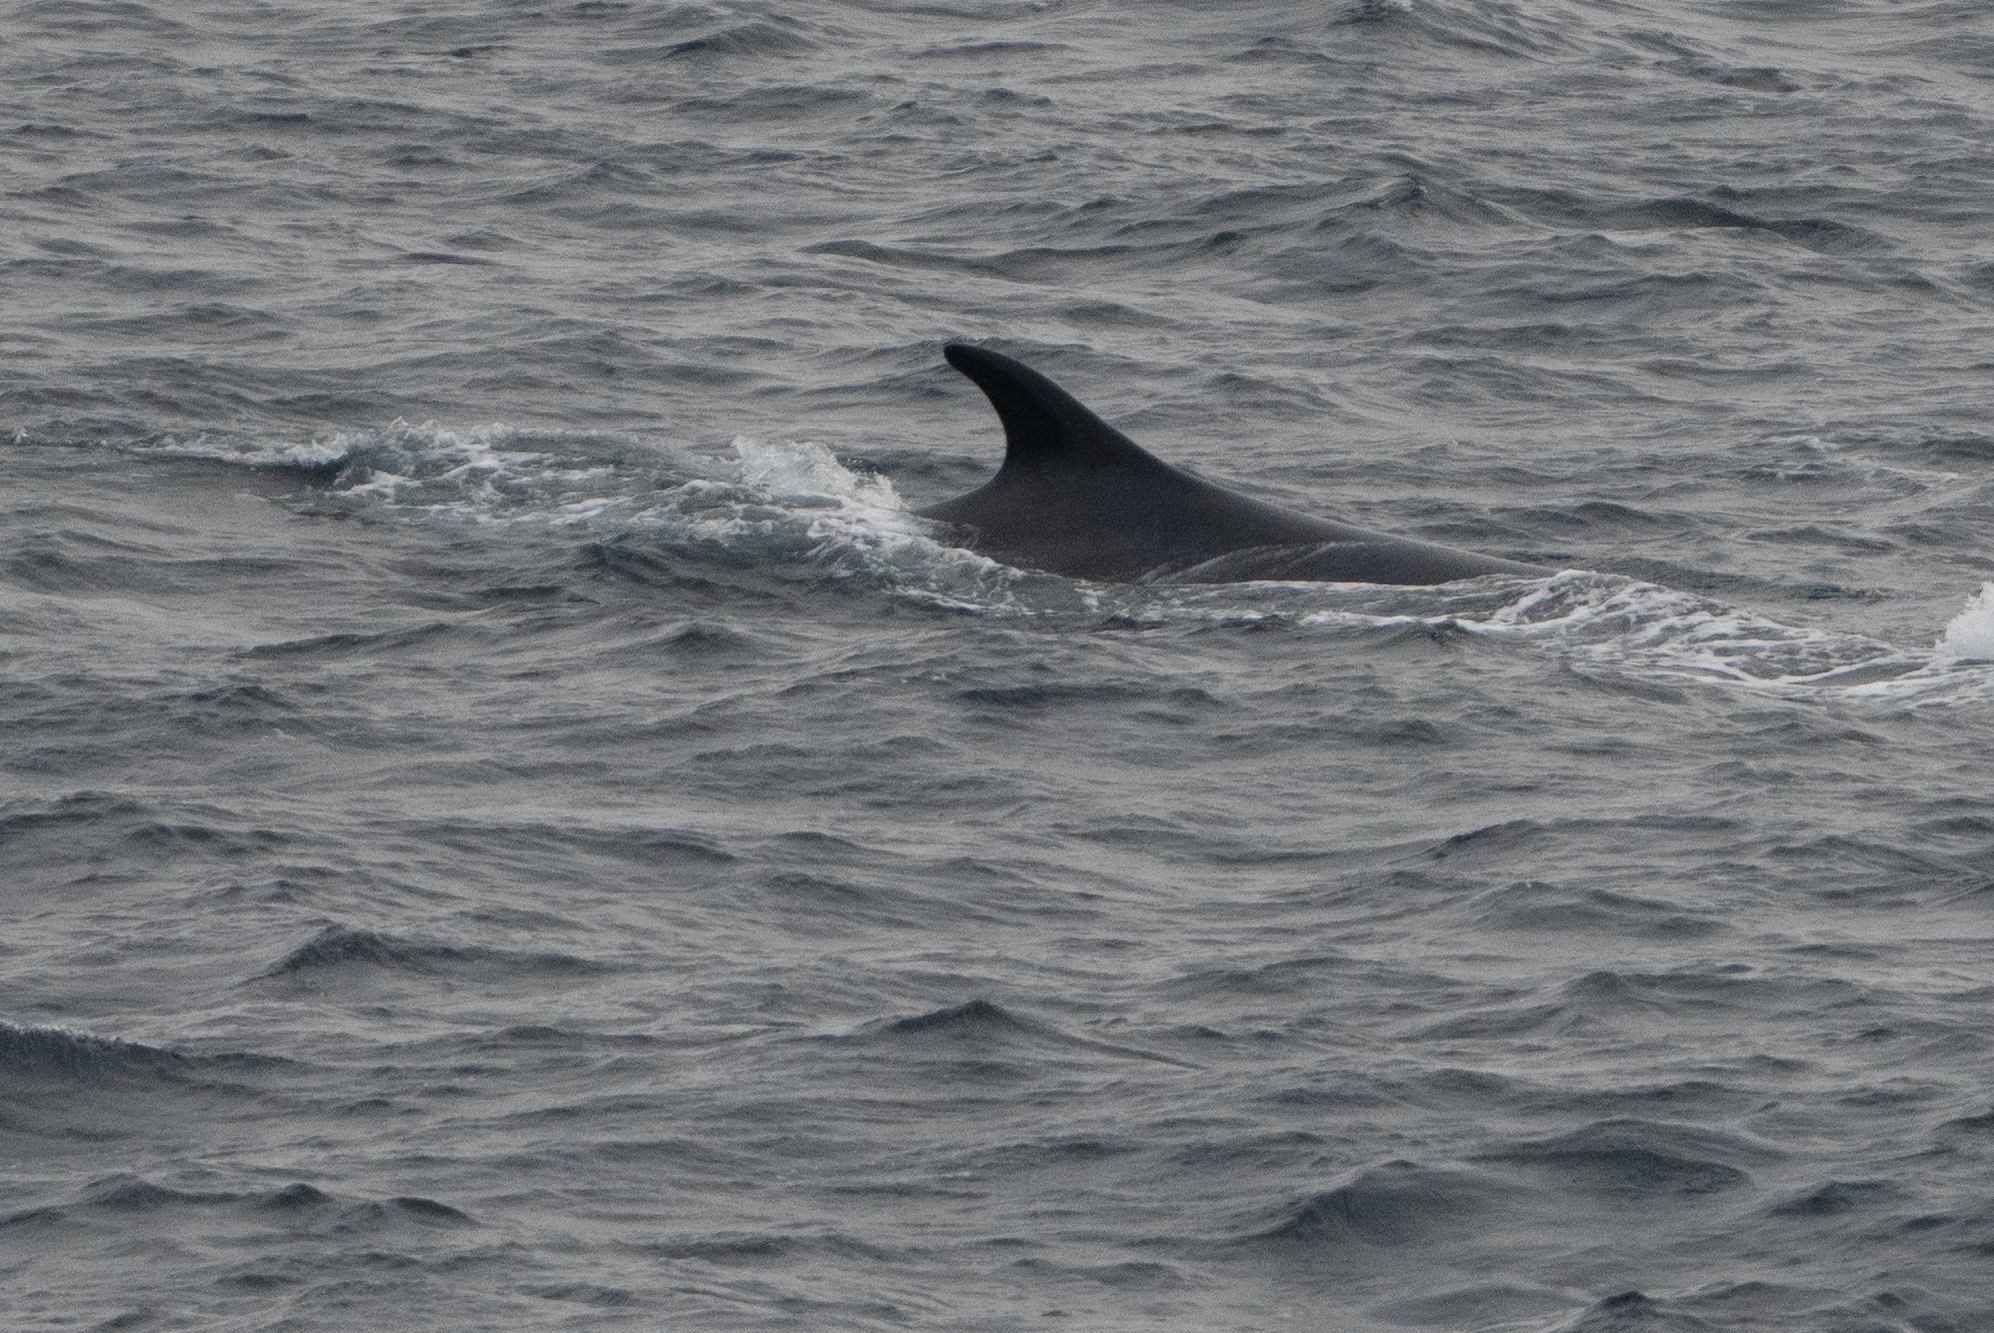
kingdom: Animalia
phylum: Chordata
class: Mammalia
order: Cetacea
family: Balaenopteridae
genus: Balaenoptera
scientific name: Balaenoptera physalus
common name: Fin whale
